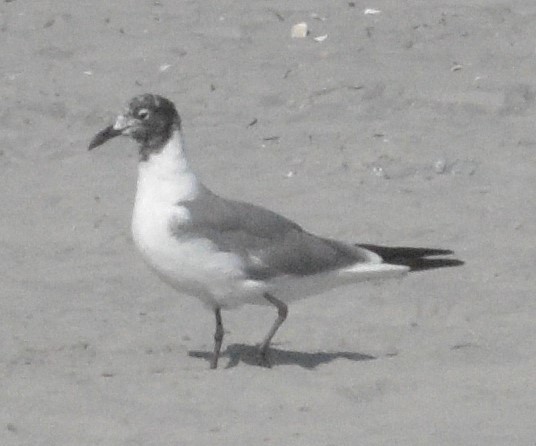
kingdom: Animalia
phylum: Chordata
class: Aves
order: Charadriiformes
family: Laridae
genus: Leucophaeus
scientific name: Leucophaeus atricilla
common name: Laughing gull
